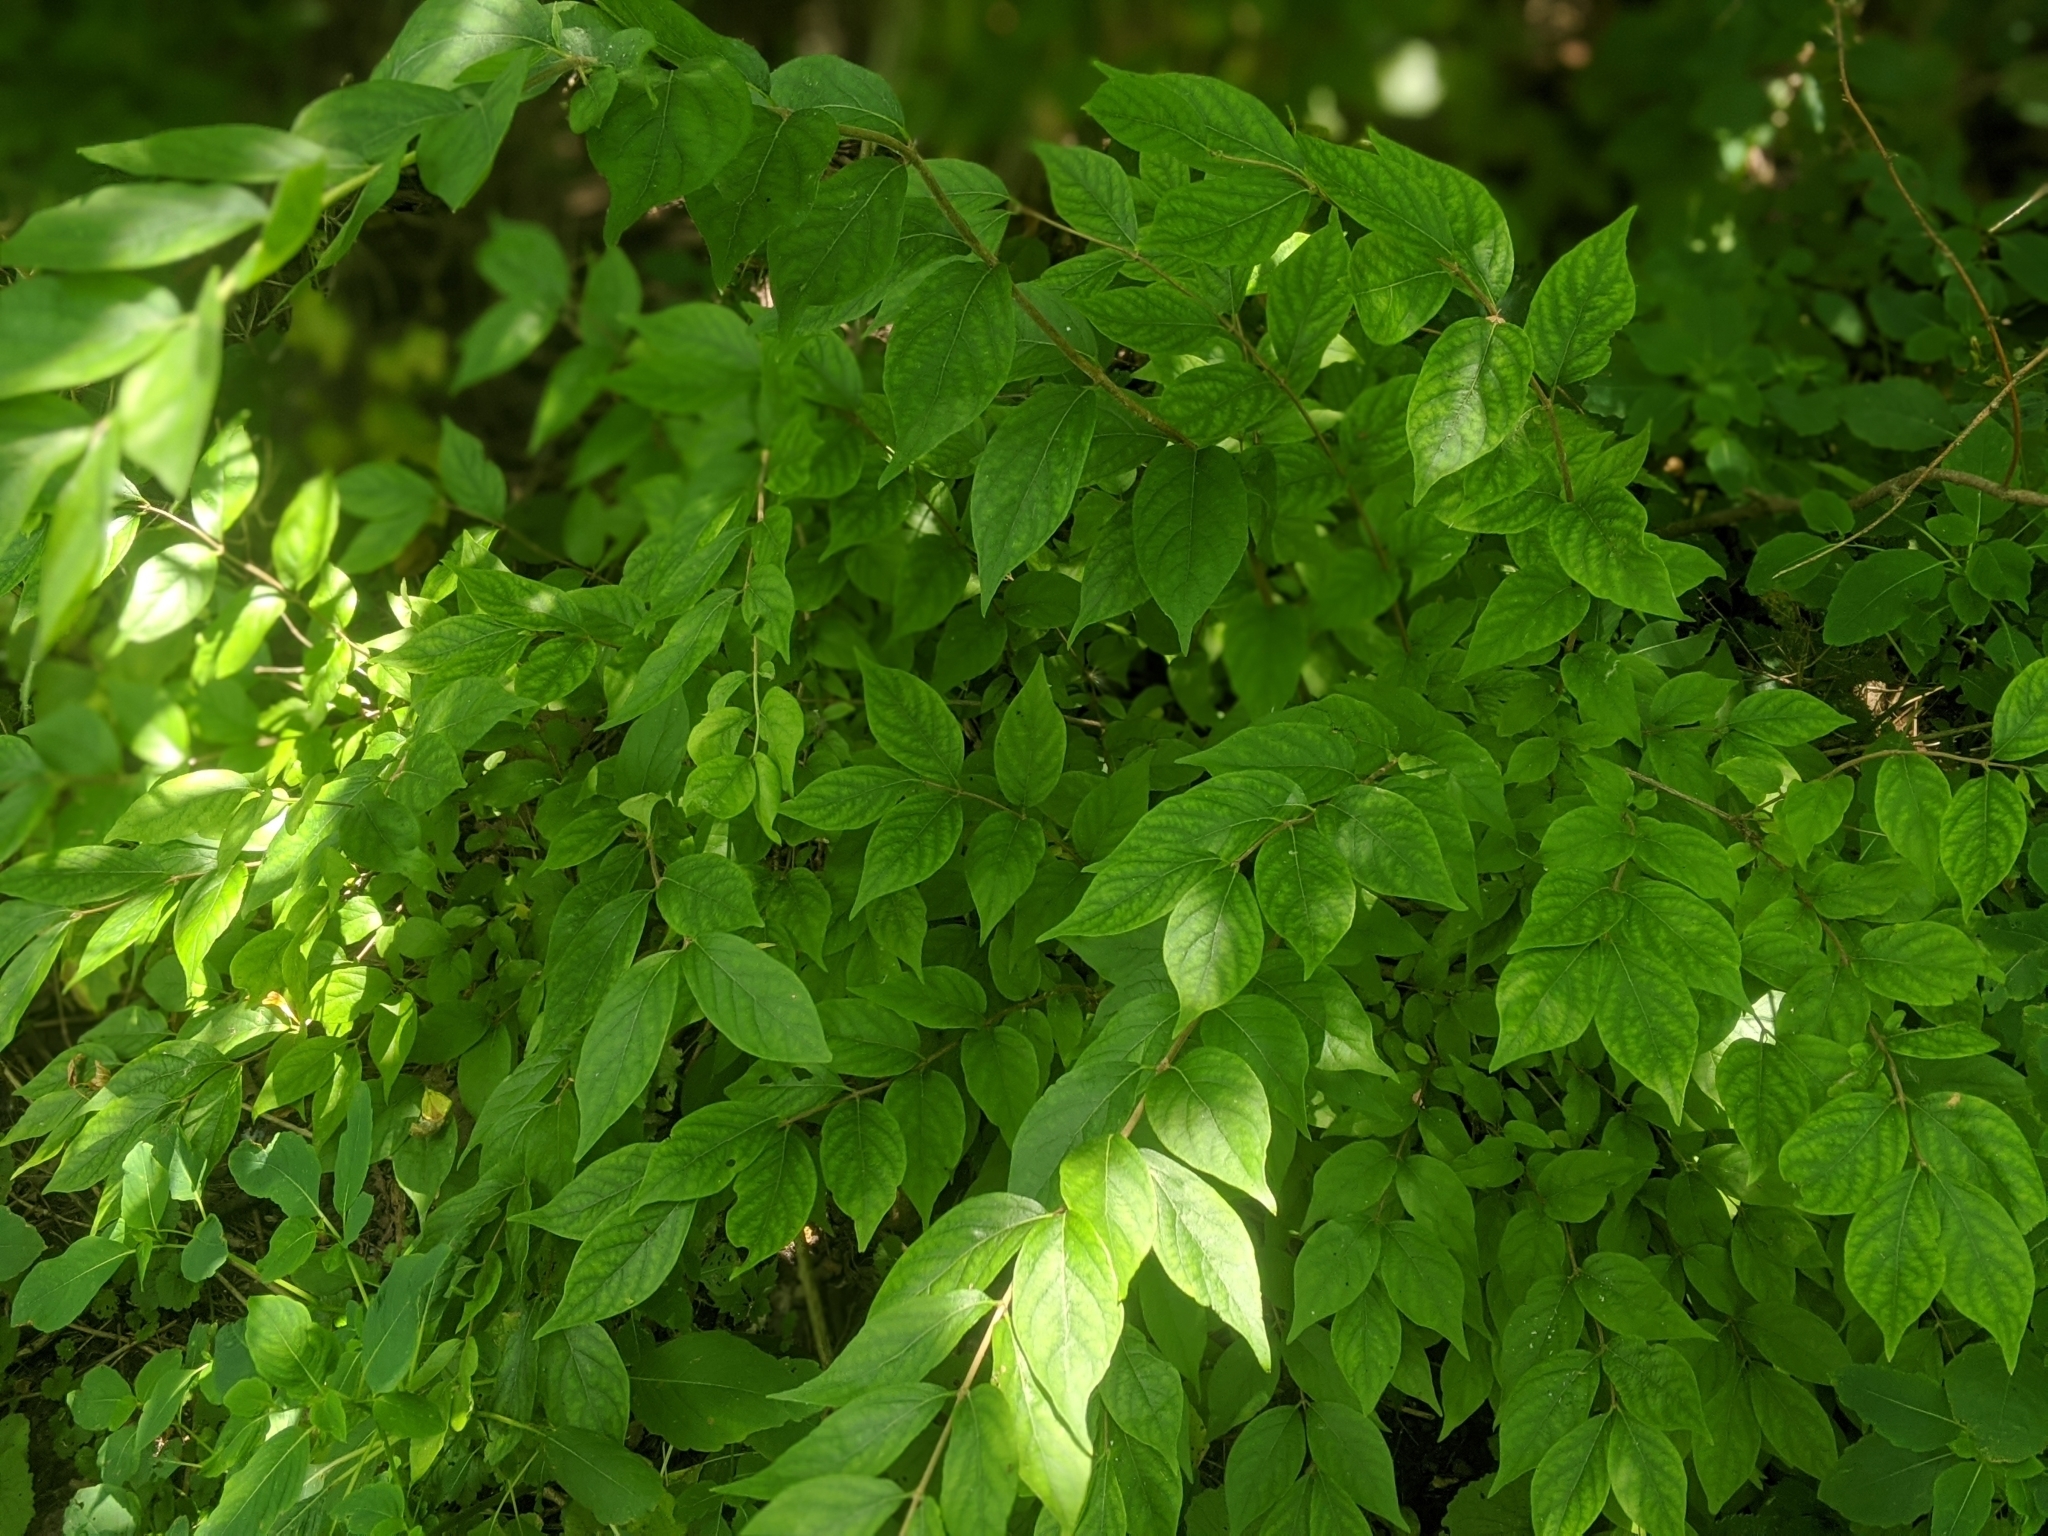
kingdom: Plantae
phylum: Tracheophyta
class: Magnoliopsida
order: Dipsacales
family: Caprifoliaceae
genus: Lonicera
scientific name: Lonicera maackii
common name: Amur honeysuckle
